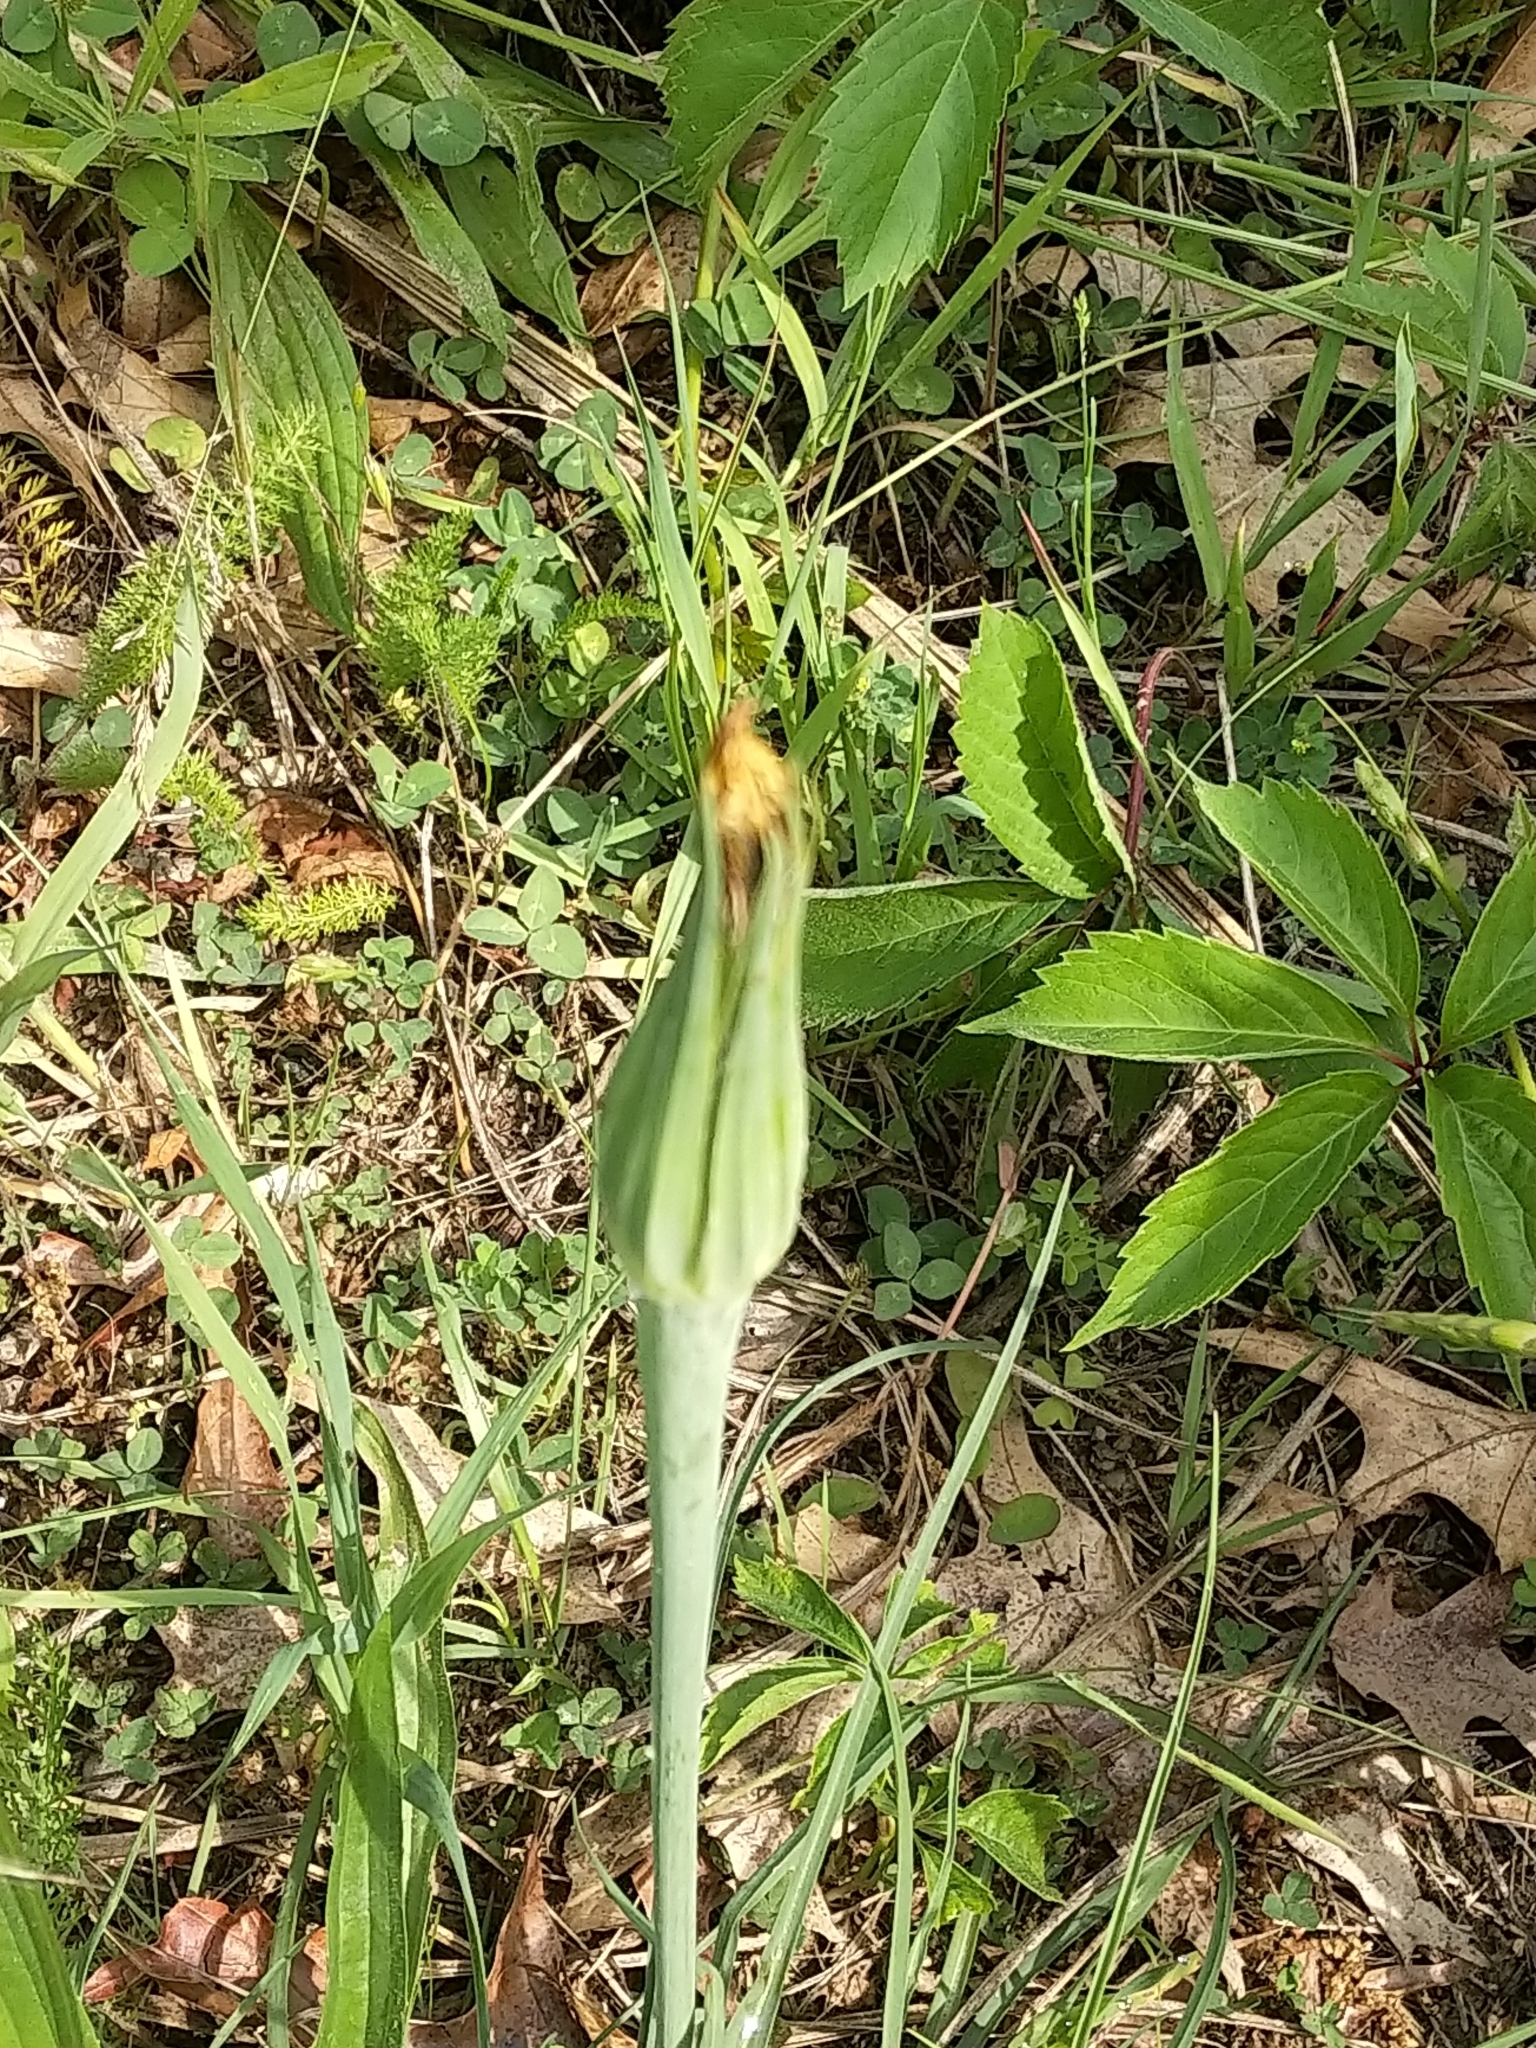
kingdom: Plantae
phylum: Tracheophyta
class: Magnoliopsida
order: Asterales
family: Asteraceae
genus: Tragopogon
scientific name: Tragopogon dubius
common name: Yellow salsify
